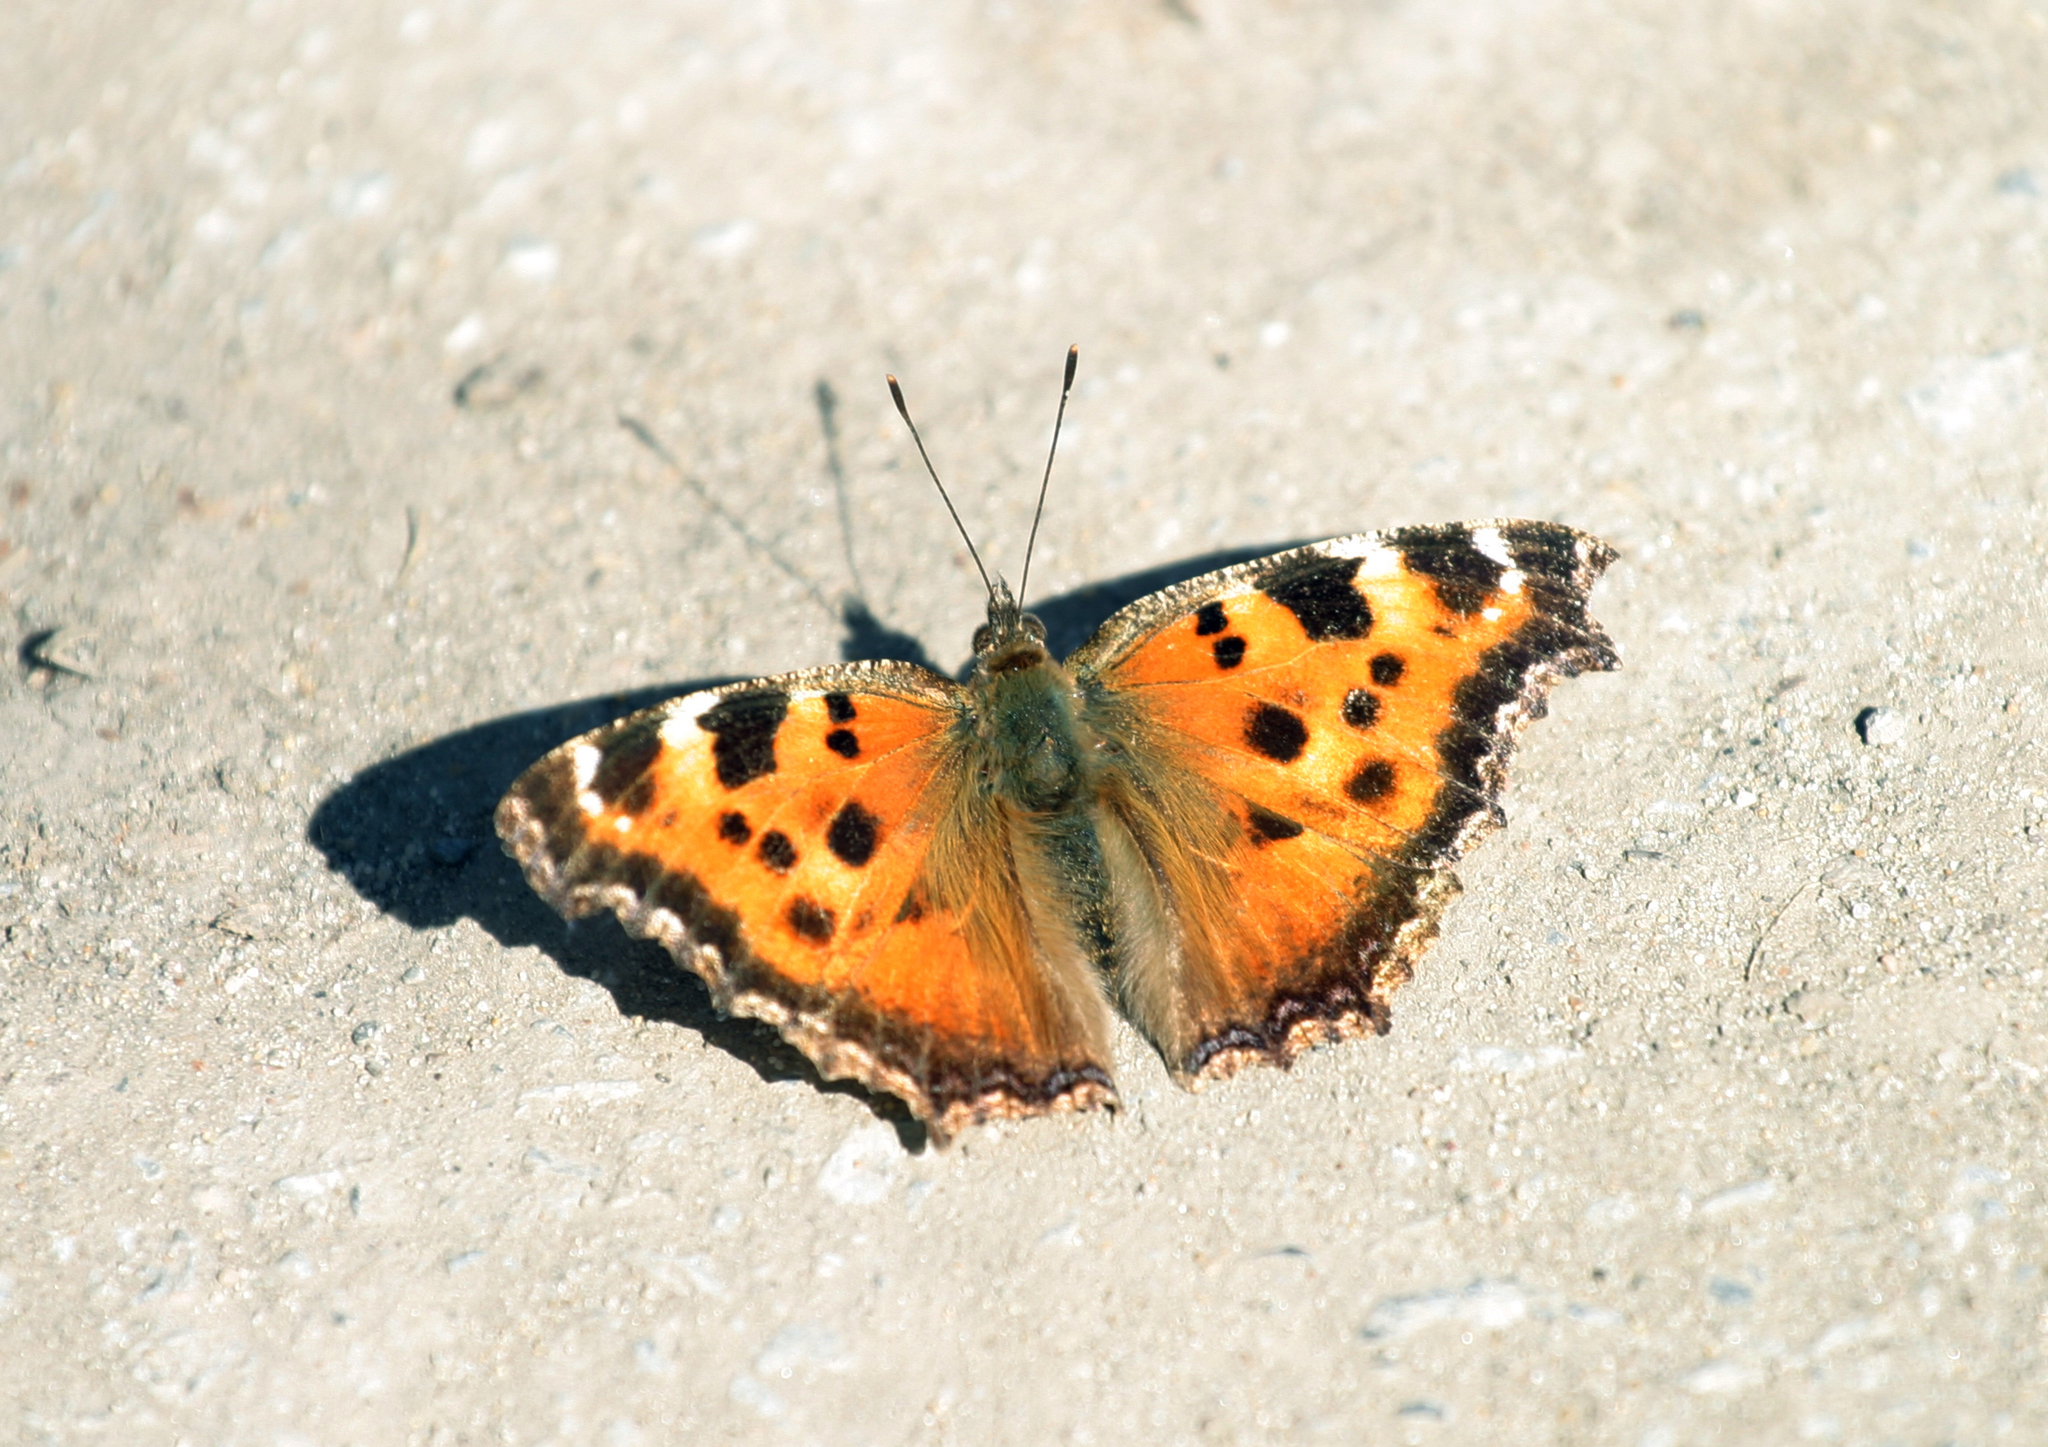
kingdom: Animalia
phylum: Arthropoda
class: Insecta
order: Lepidoptera
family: Nymphalidae
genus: Nymphalis
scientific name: Nymphalis xanthomelas
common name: Scarce tortoiseshell
